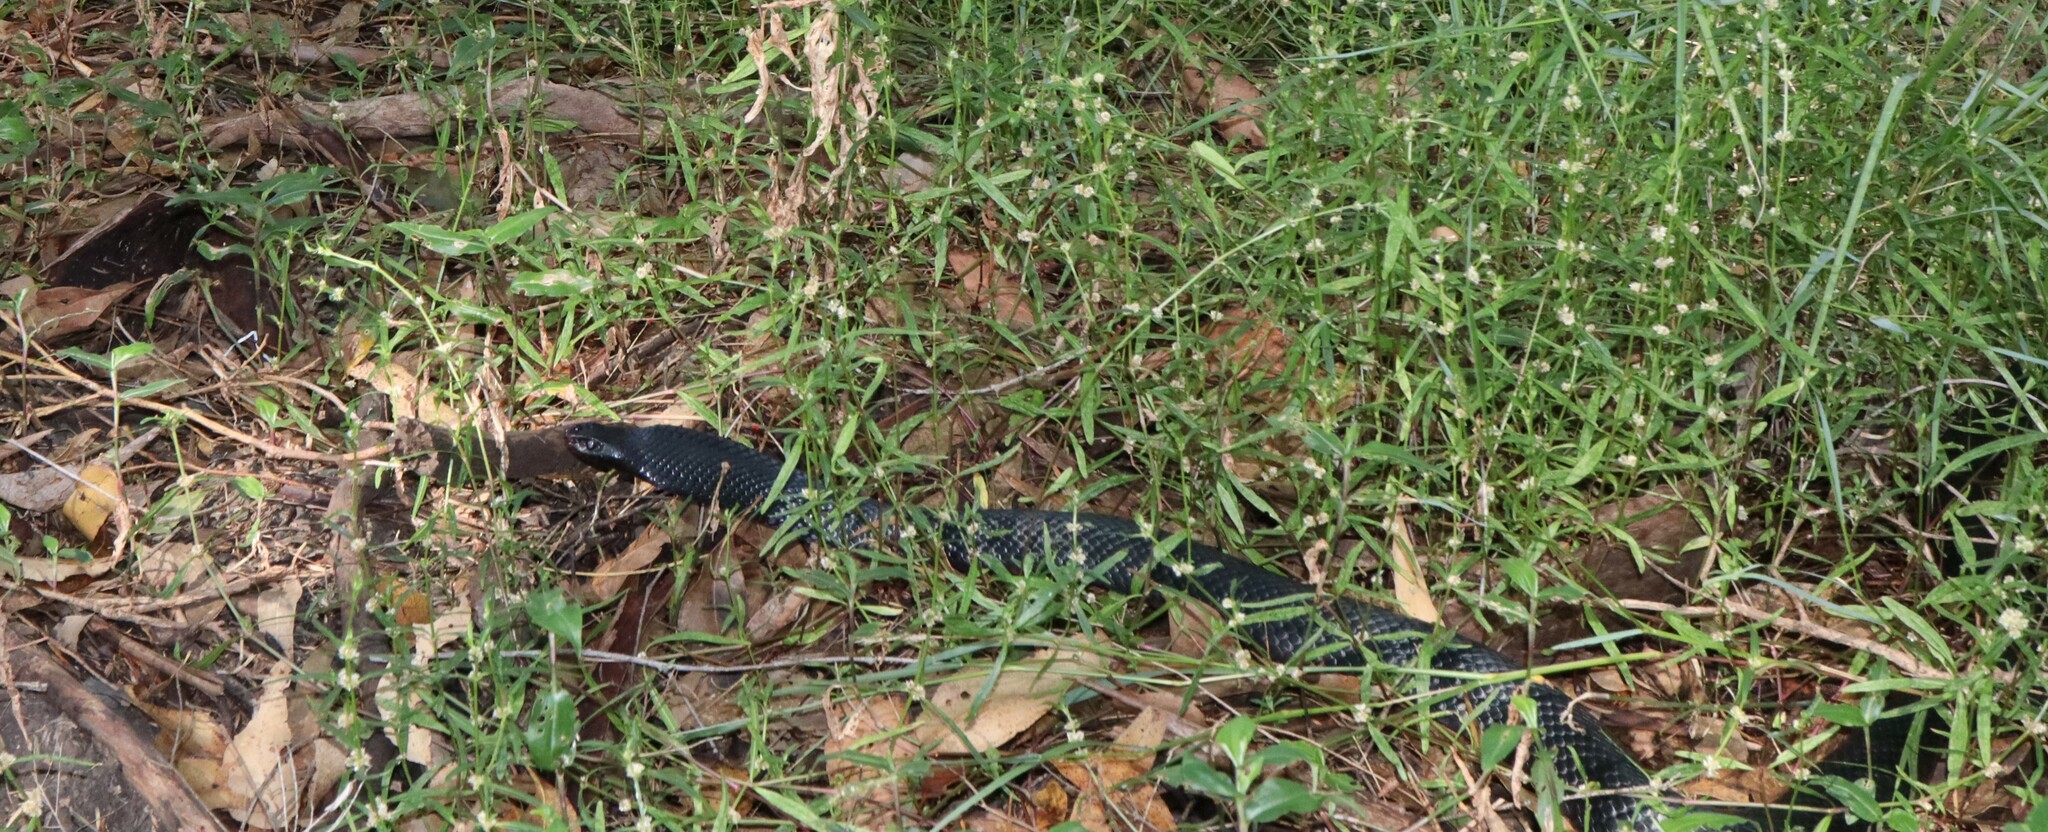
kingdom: Animalia
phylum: Chordata
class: Squamata
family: Elapidae
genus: Pseudechis
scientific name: Pseudechis porphyriacus
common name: Australian black snake
